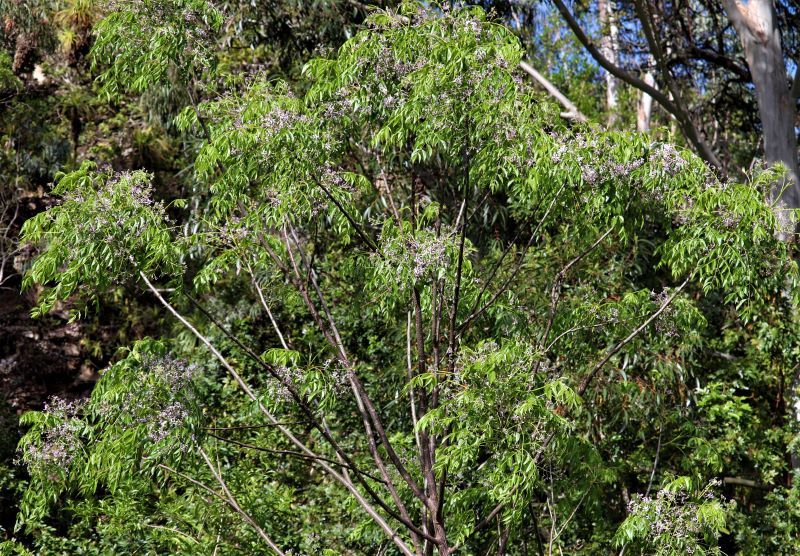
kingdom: Plantae
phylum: Tracheophyta
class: Magnoliopsida
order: Sapindales
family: Meliaceae
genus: Melia
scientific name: Melia azedarach
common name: Chinaberrytree
